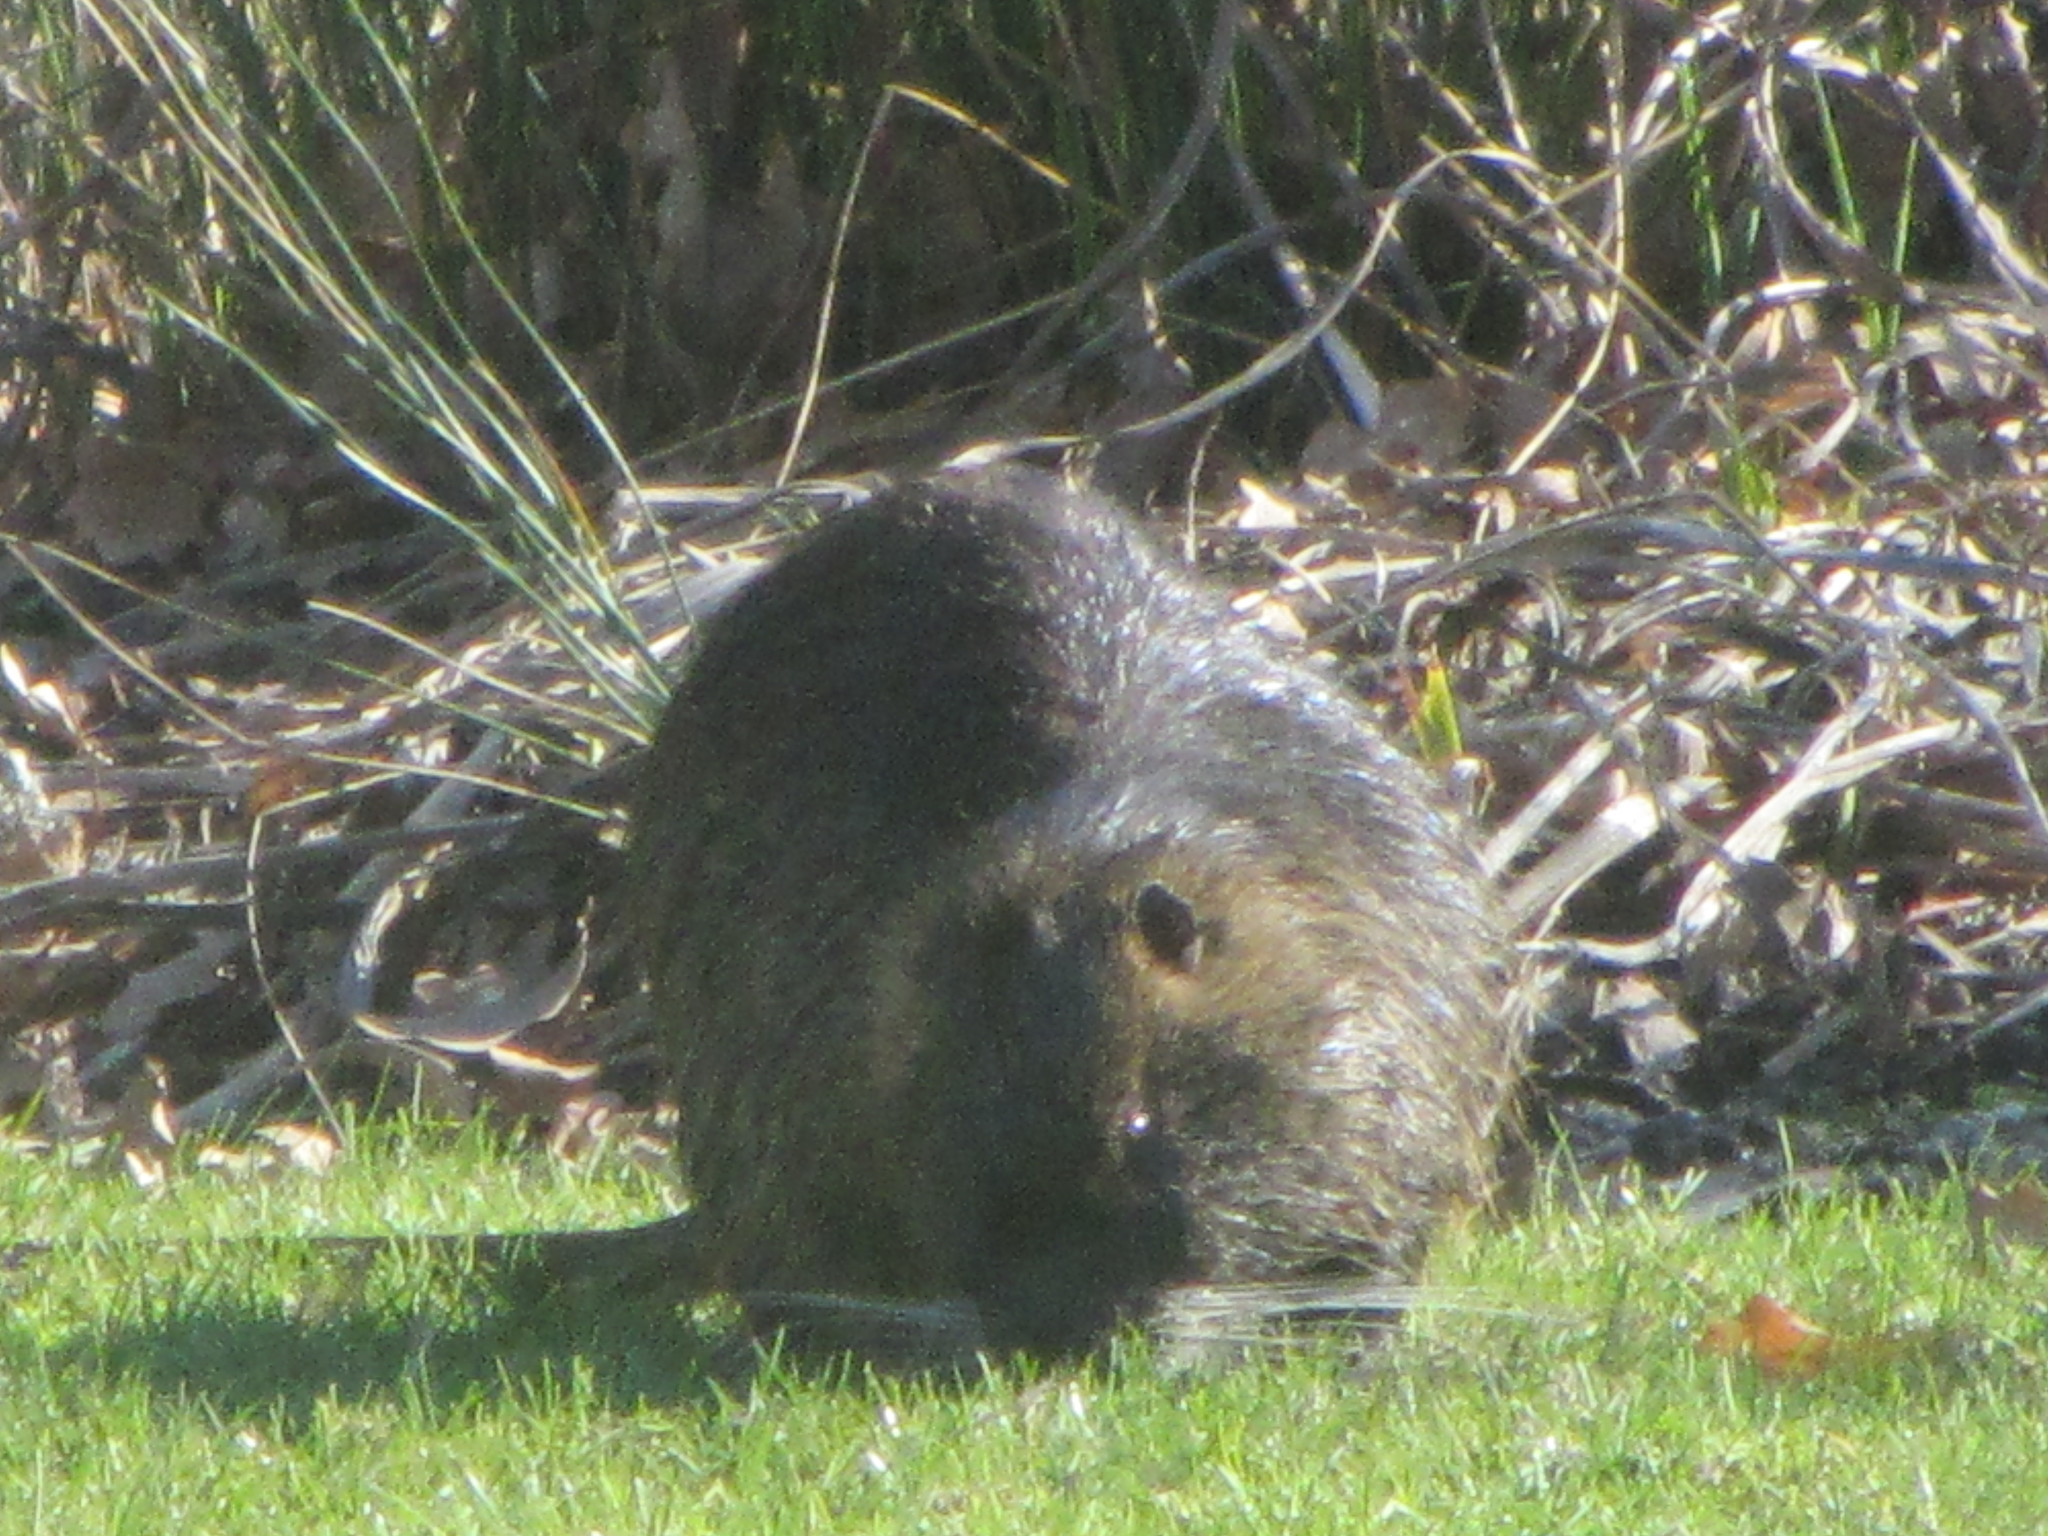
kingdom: Animalia
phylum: Chordata
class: Mammalia
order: Rodentia
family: Myocastoridae
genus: Myocastor
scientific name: Myocastor coypus
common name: Coypu
